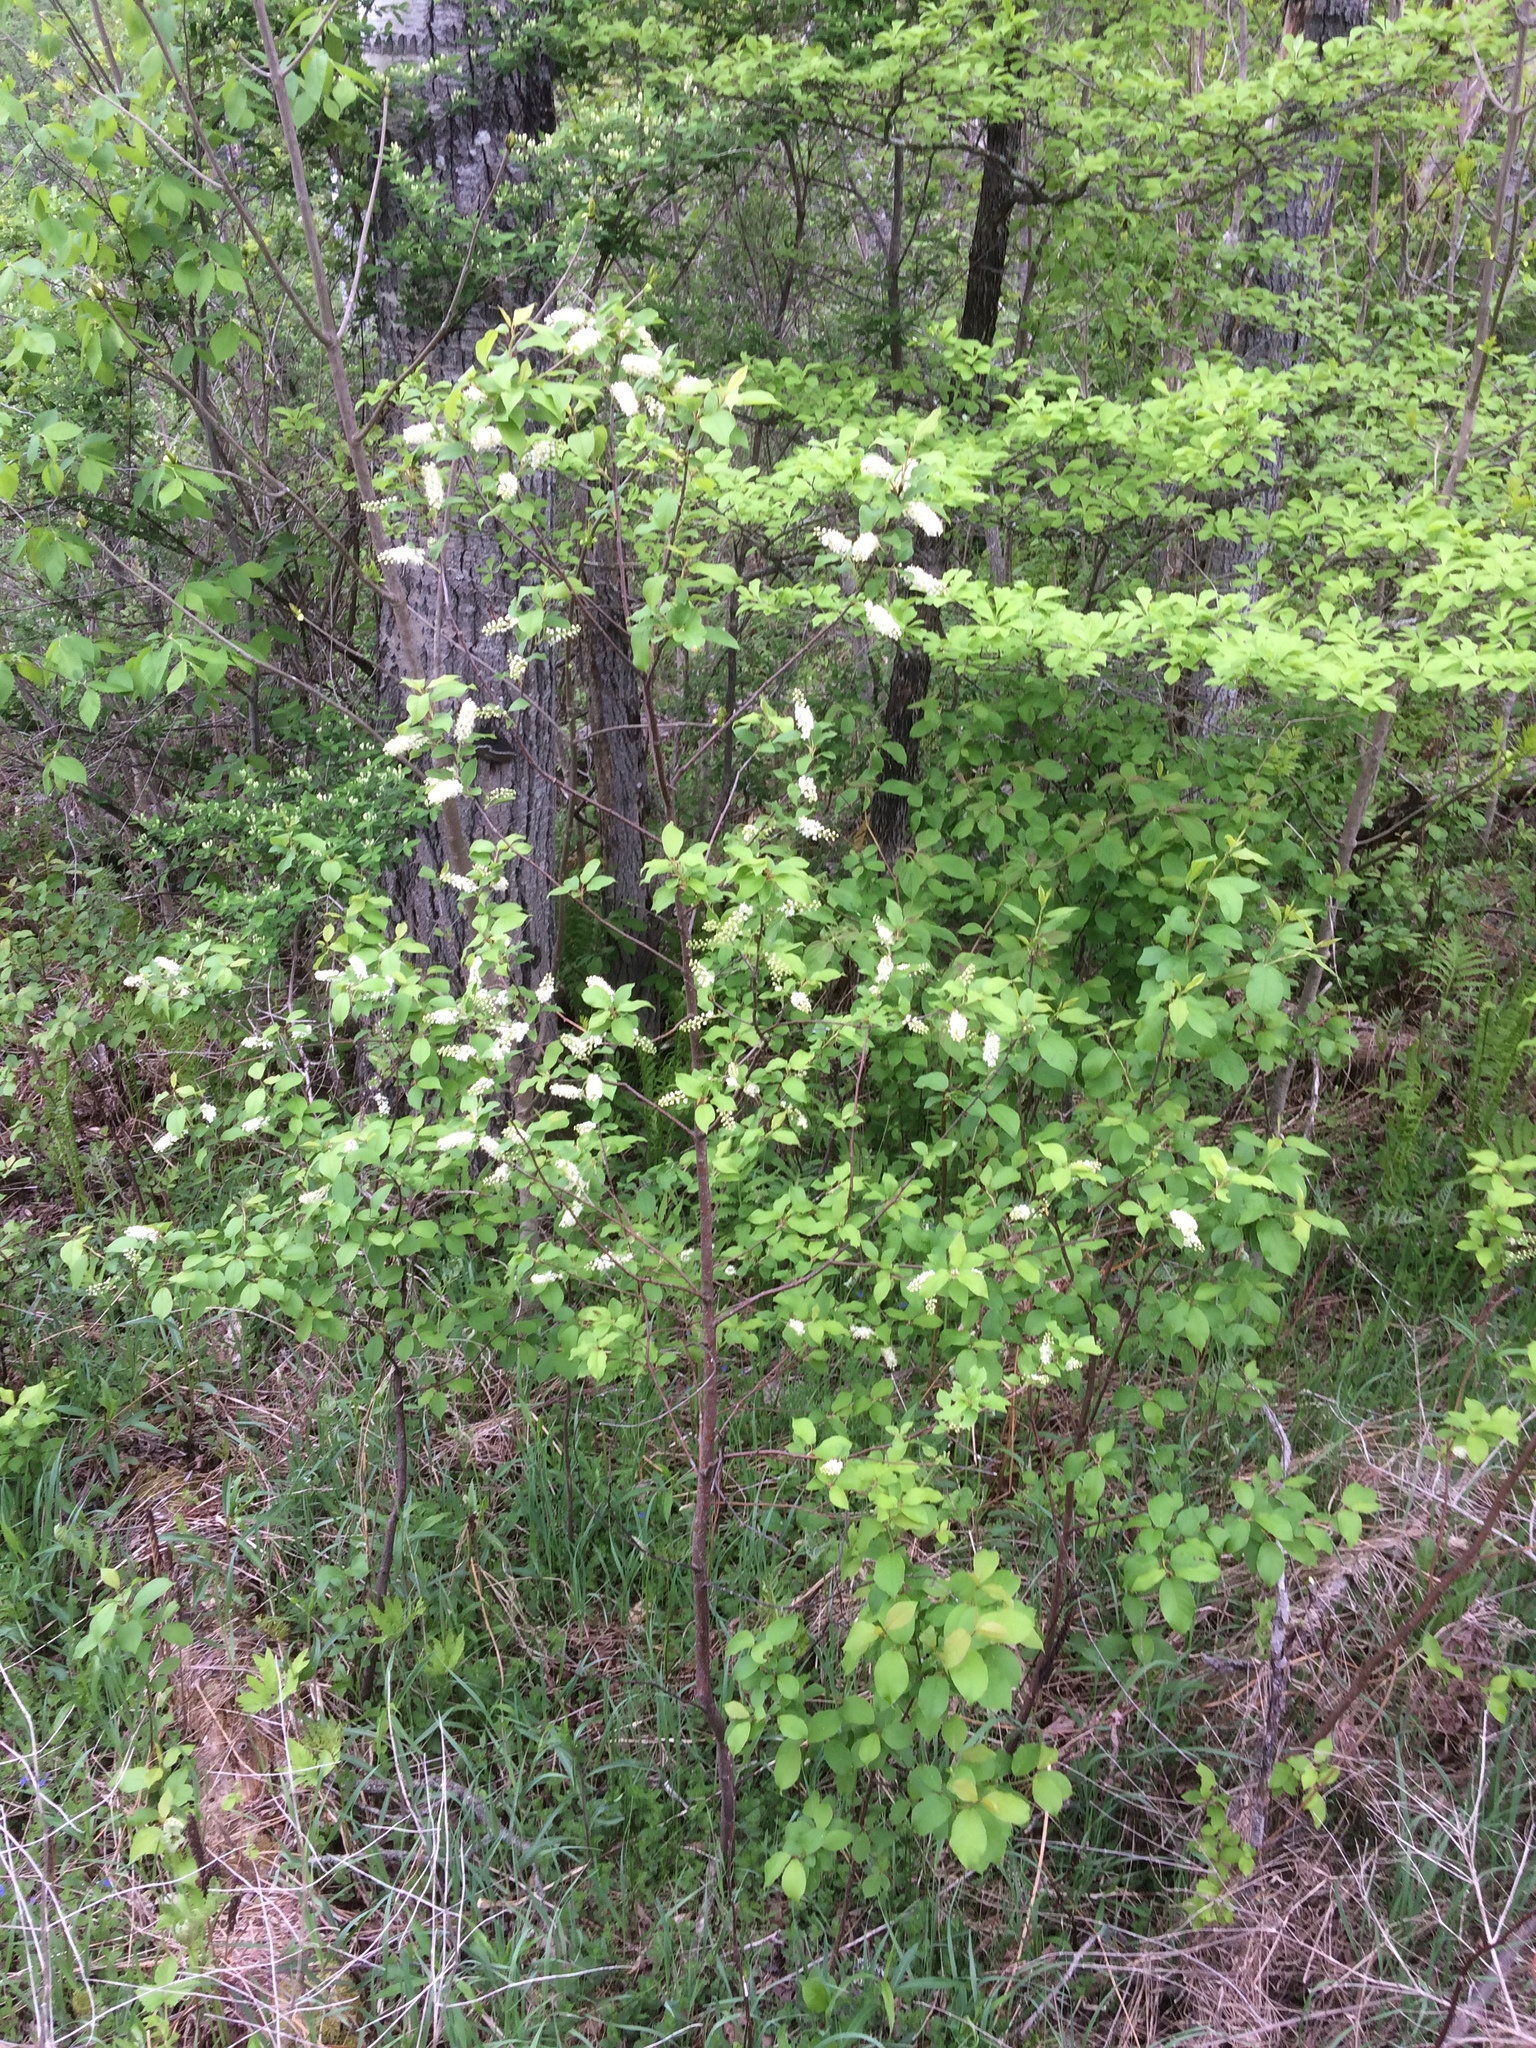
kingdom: Plantae
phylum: Tracheophyta
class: Magnoliopsida
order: Rosales
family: Rosaceae
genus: Prunus
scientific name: Prunus virginiana
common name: Chokecherry
